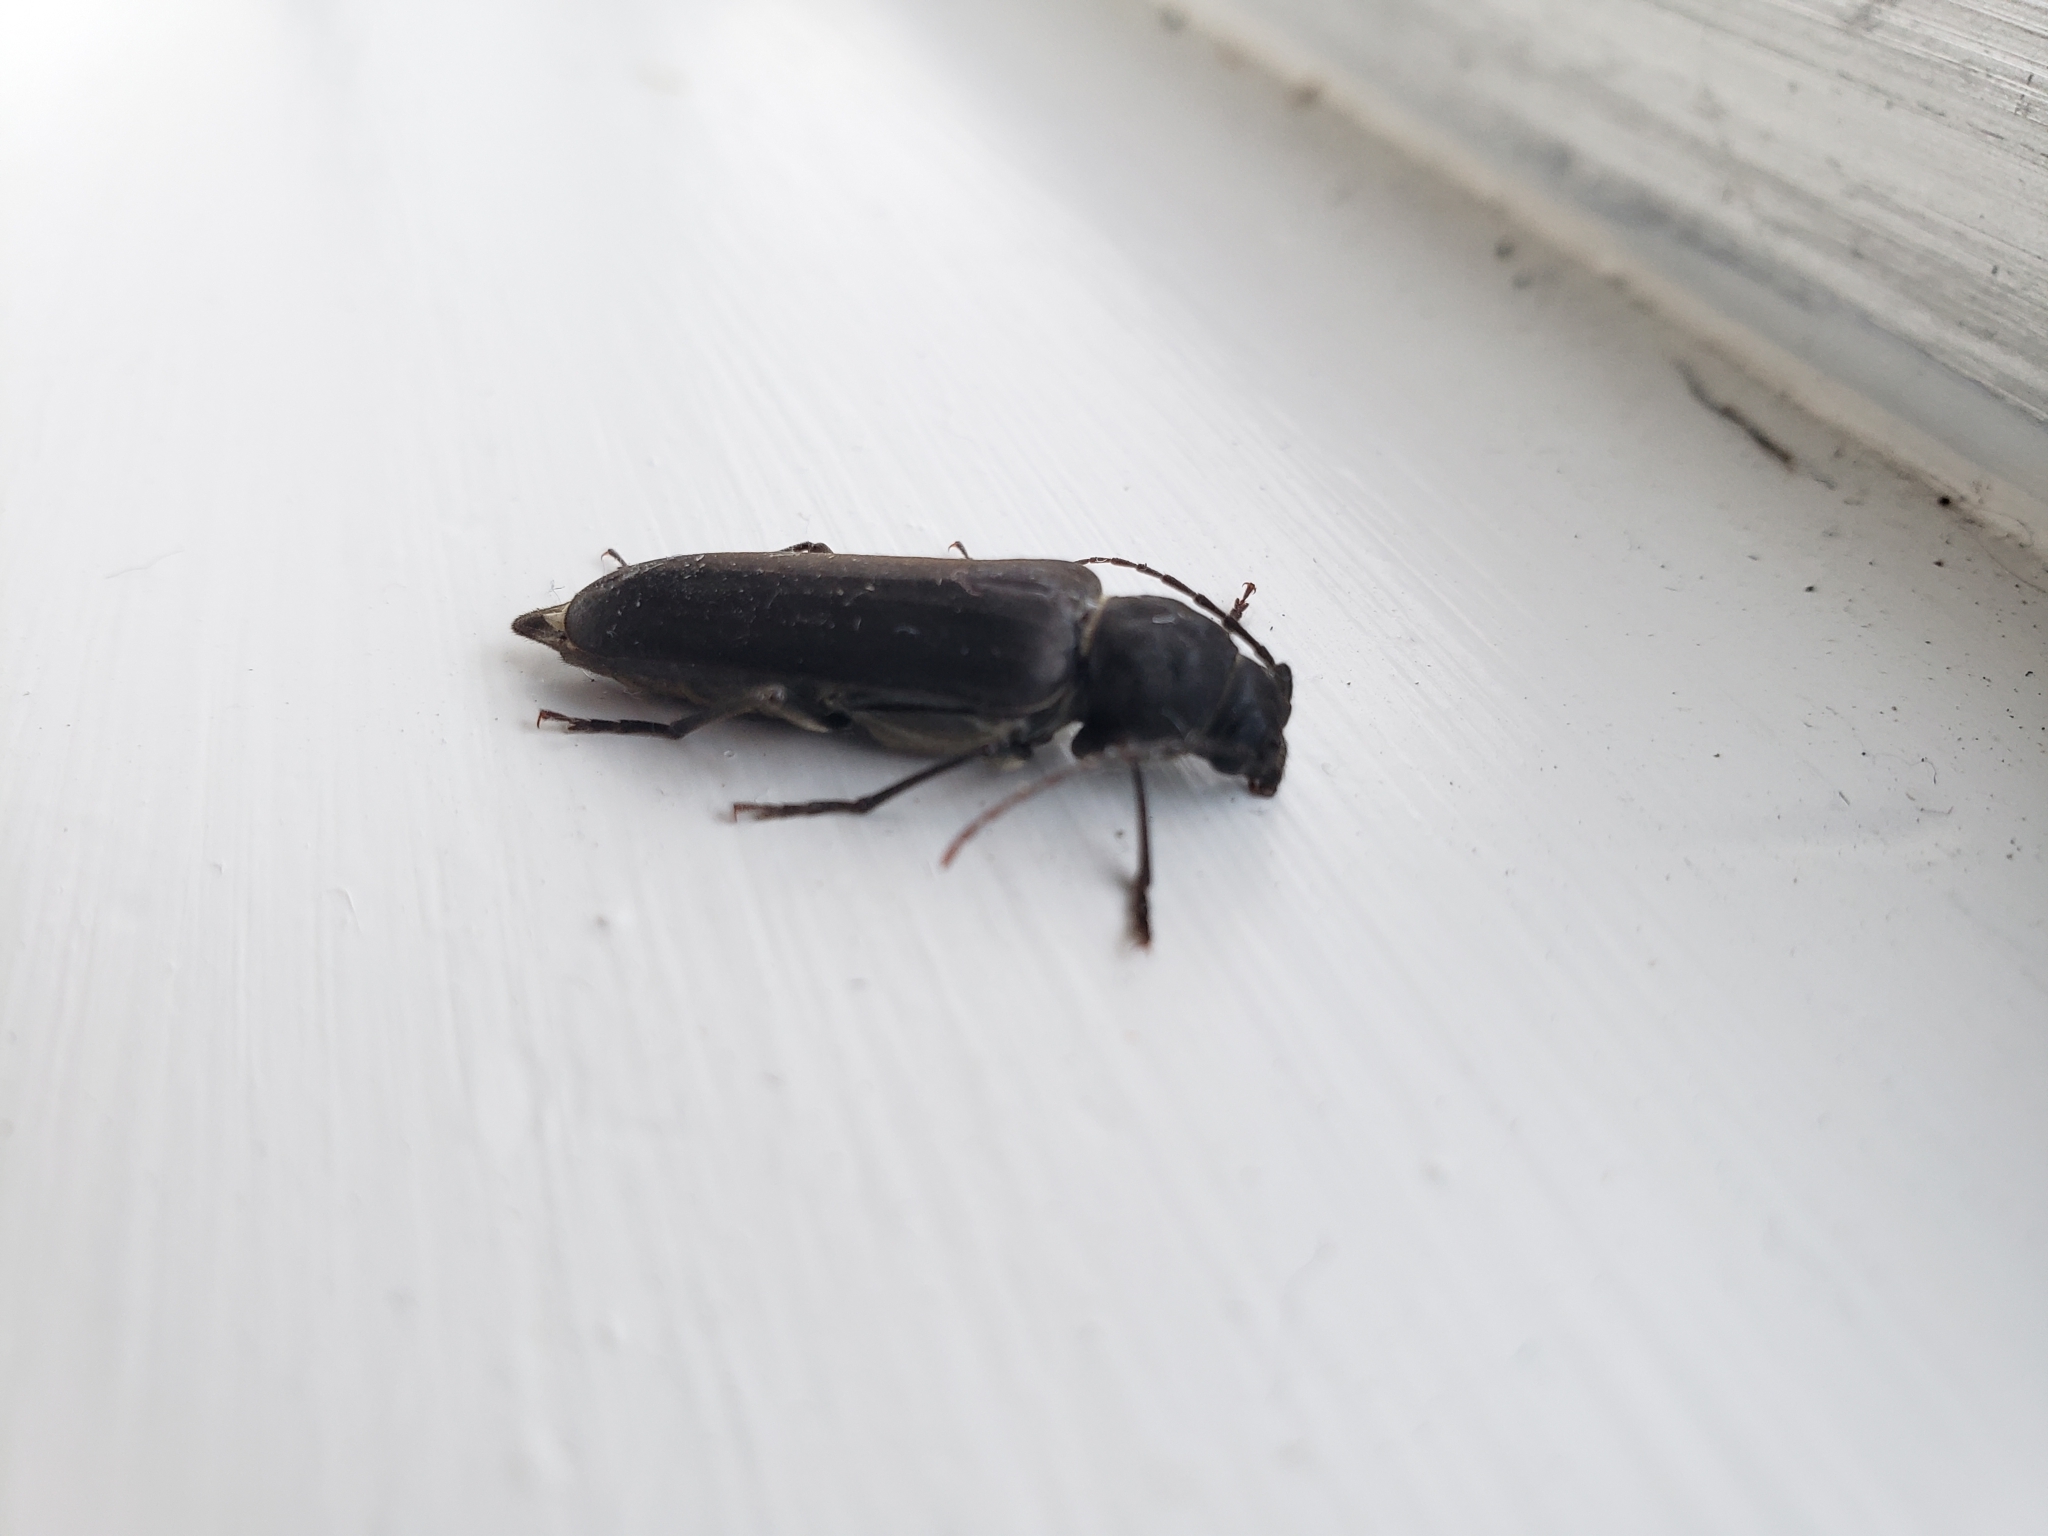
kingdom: Animalia
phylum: Arthropoda
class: Insecta
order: Coleoptera
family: Cerambycidae
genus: Arhopalus
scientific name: Arhopalus ferus
